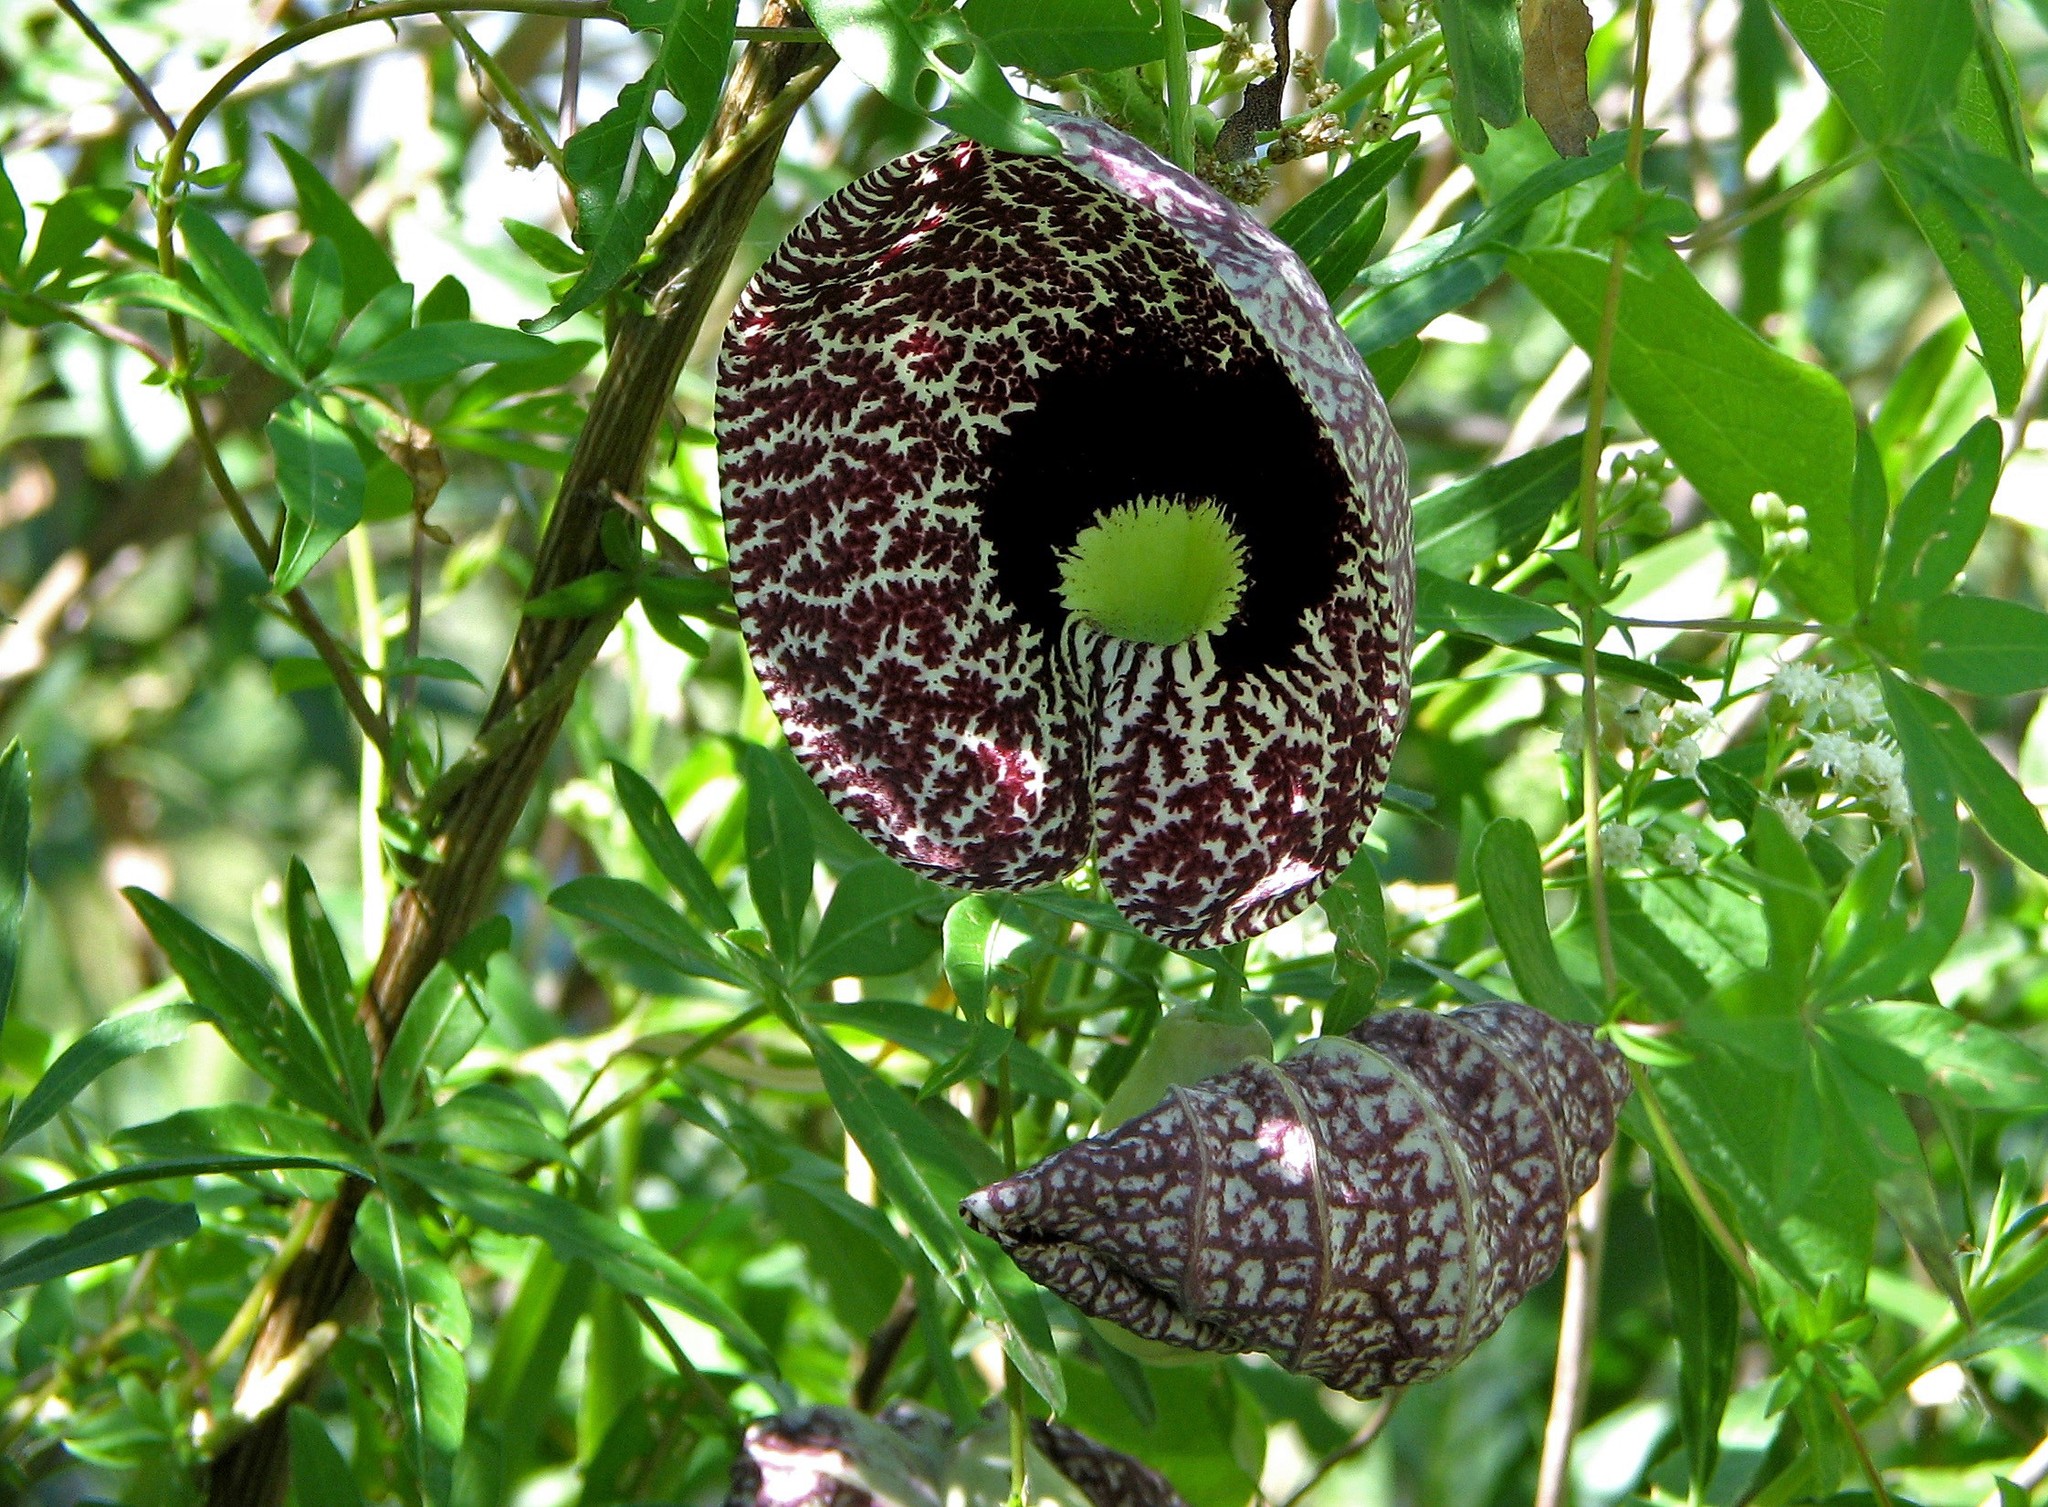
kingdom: Plantae
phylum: Tracheophyta
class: Magnoliopsida
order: Piperales
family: Aristolochiaceae
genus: Aristolochia
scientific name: Aristolochia littoralis
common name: Duck
